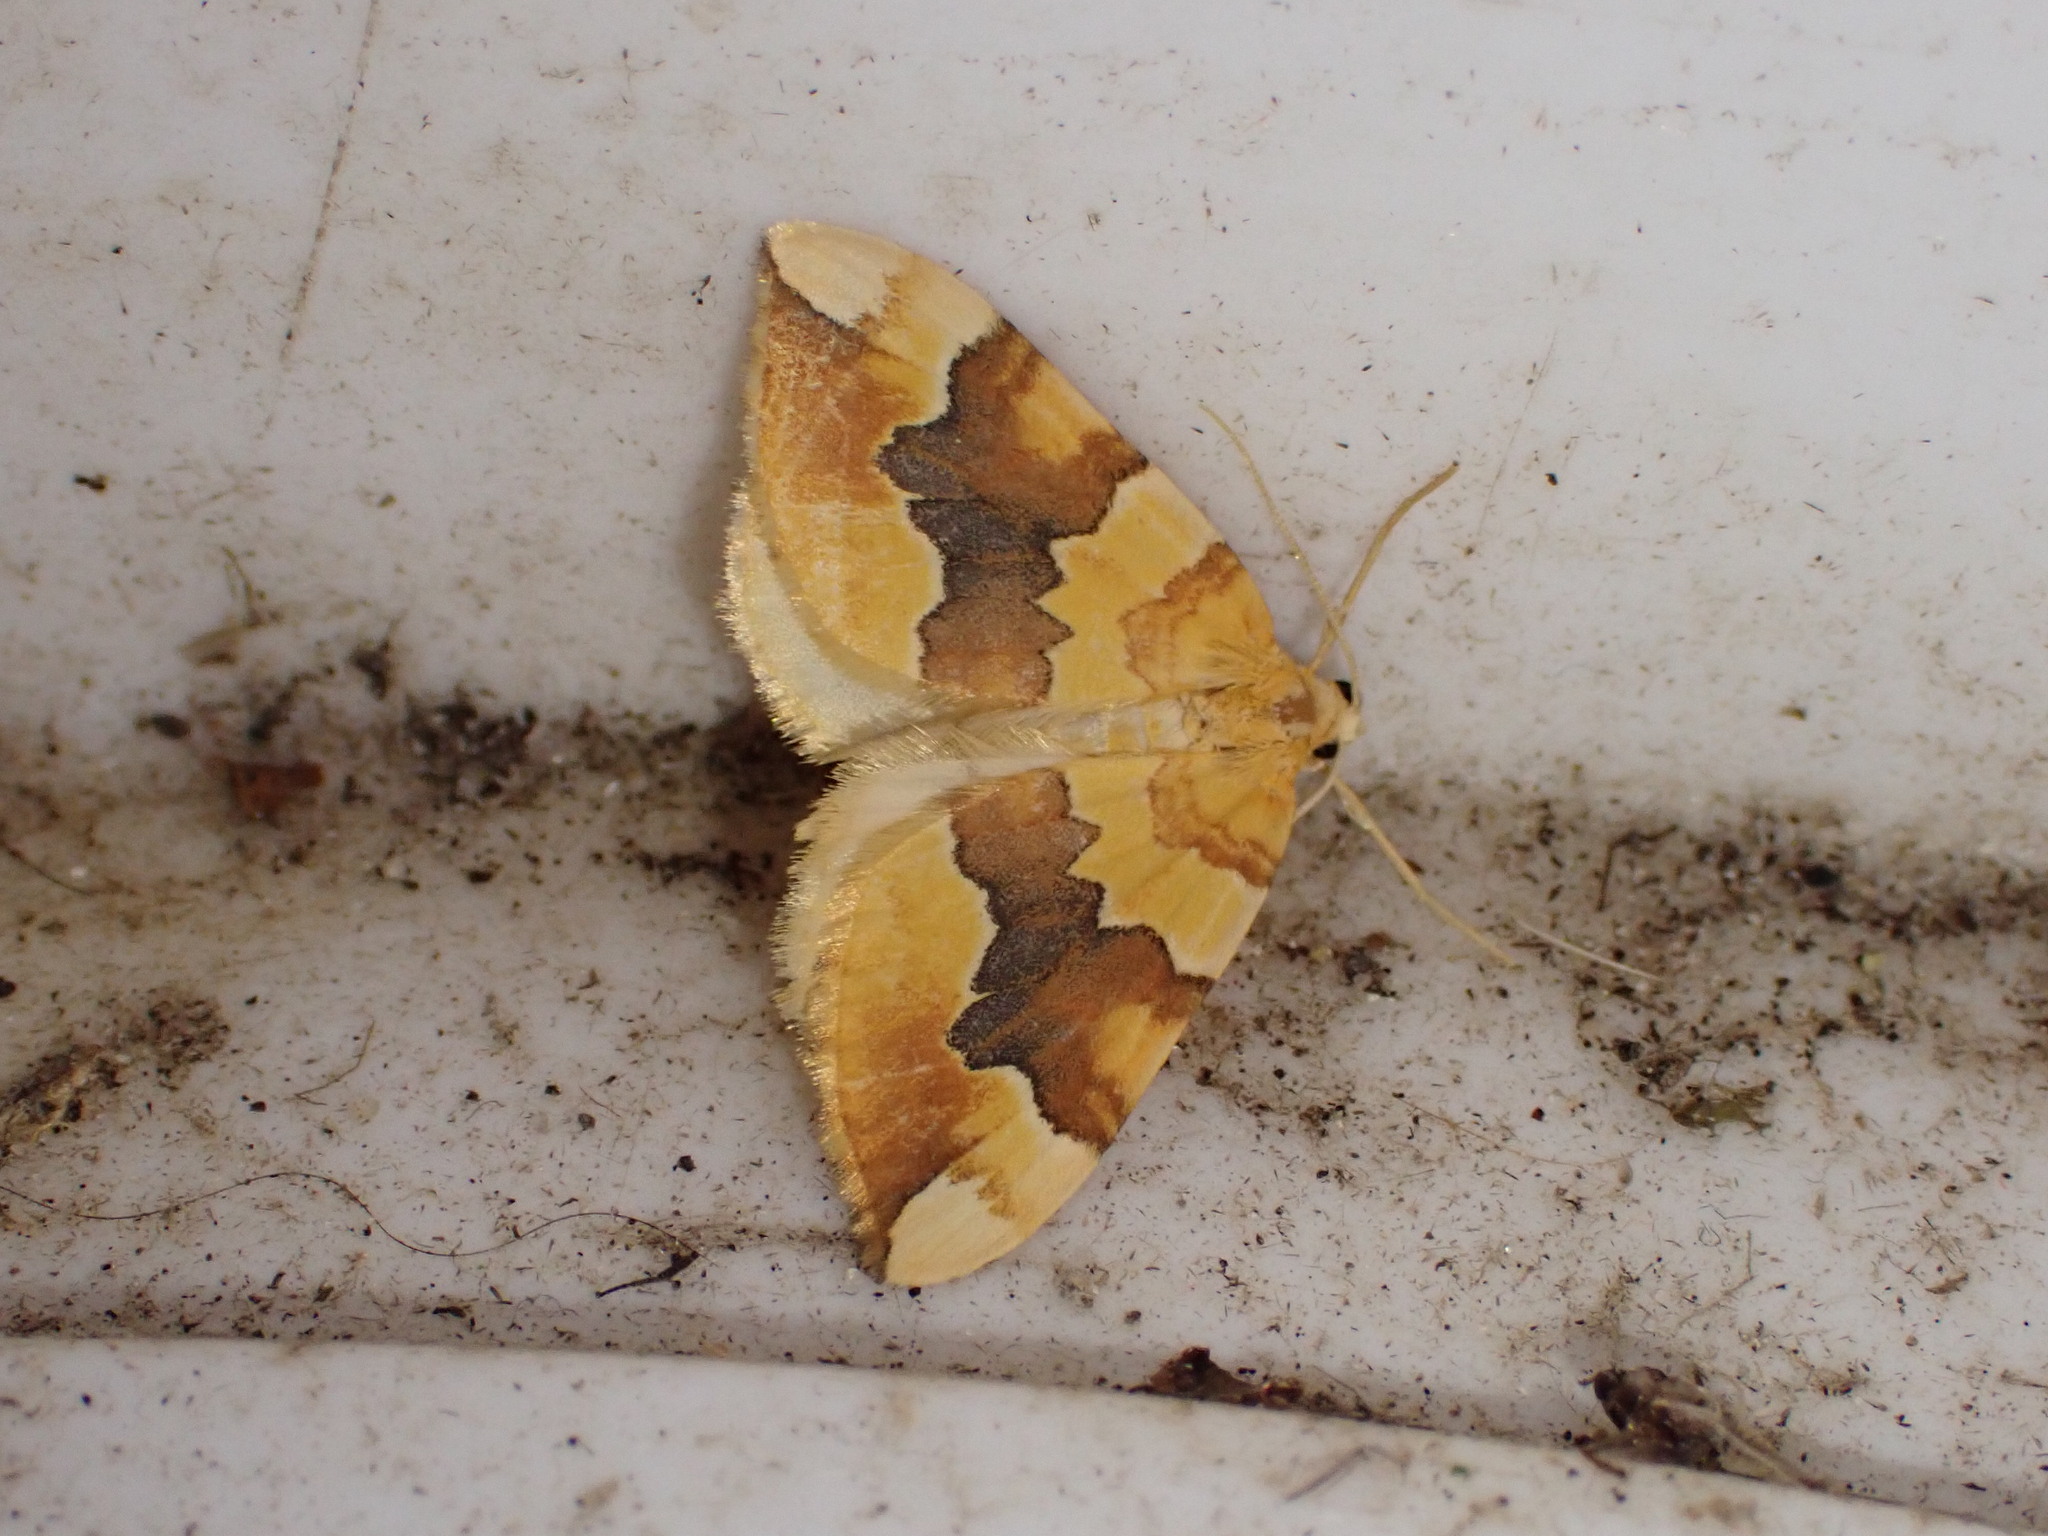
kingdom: Animalia
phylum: Arthropoda
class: Insecta
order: Lepidoptera
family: Geometridae
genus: Cidaria
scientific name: Cidaria fulvata
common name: Barred yellow
